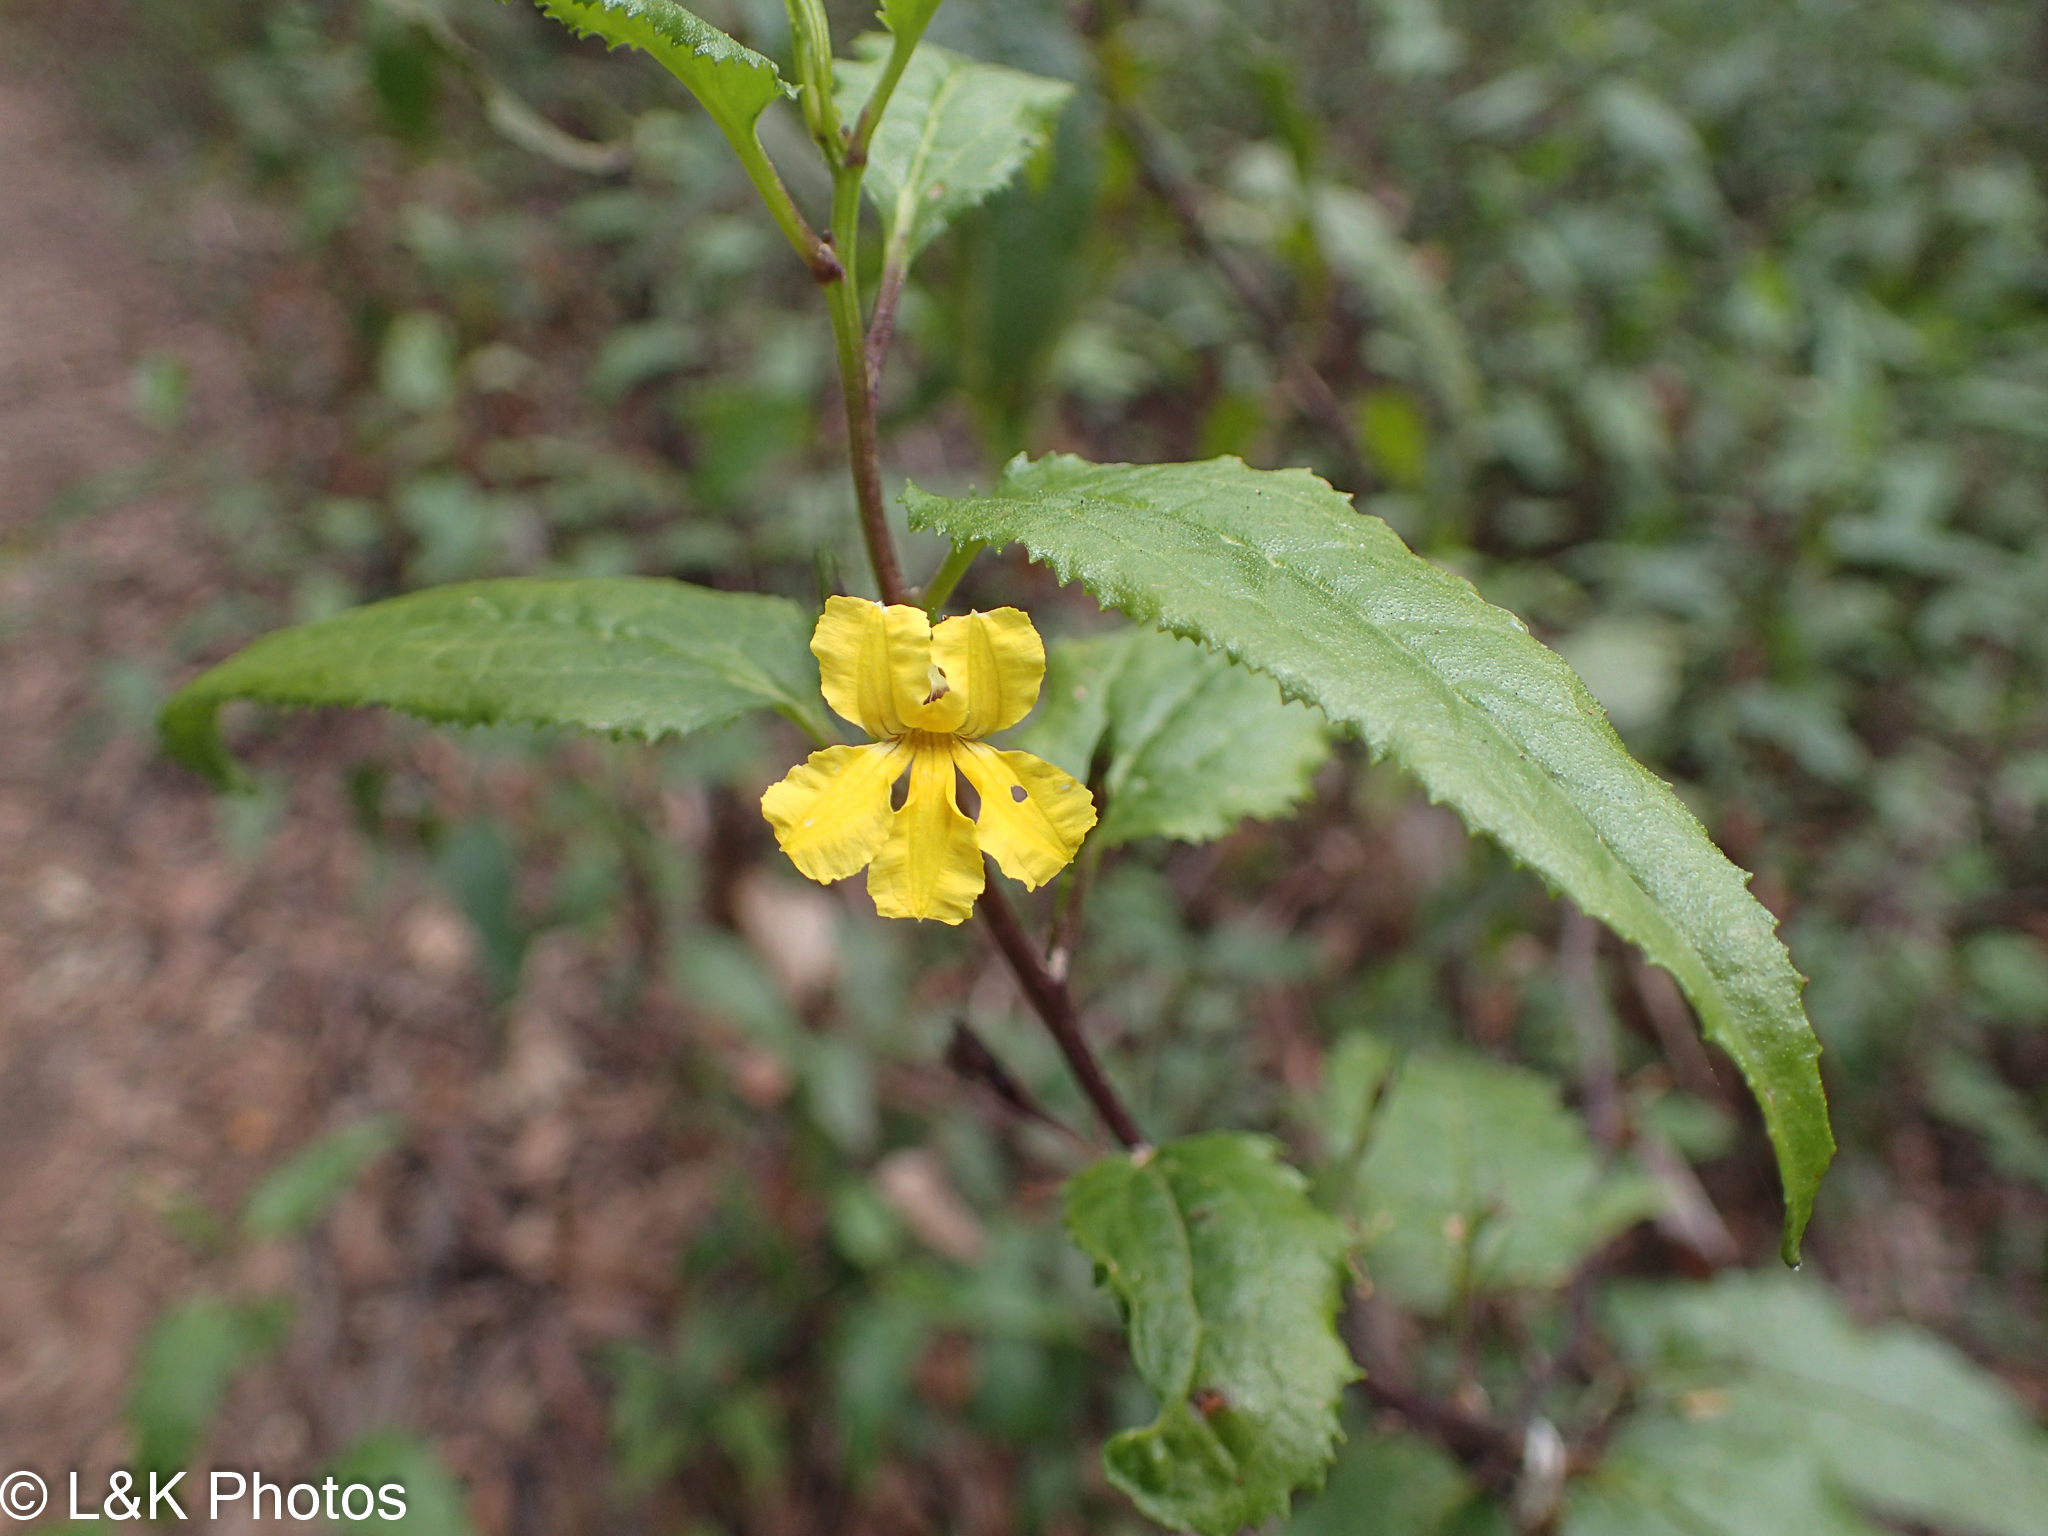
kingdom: Plantae
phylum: Tracheophyta
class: Magnoliopsida
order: Asterales
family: Goodeniaceae
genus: Goodenia
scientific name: Goodenia ovata
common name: Hop goodenia
